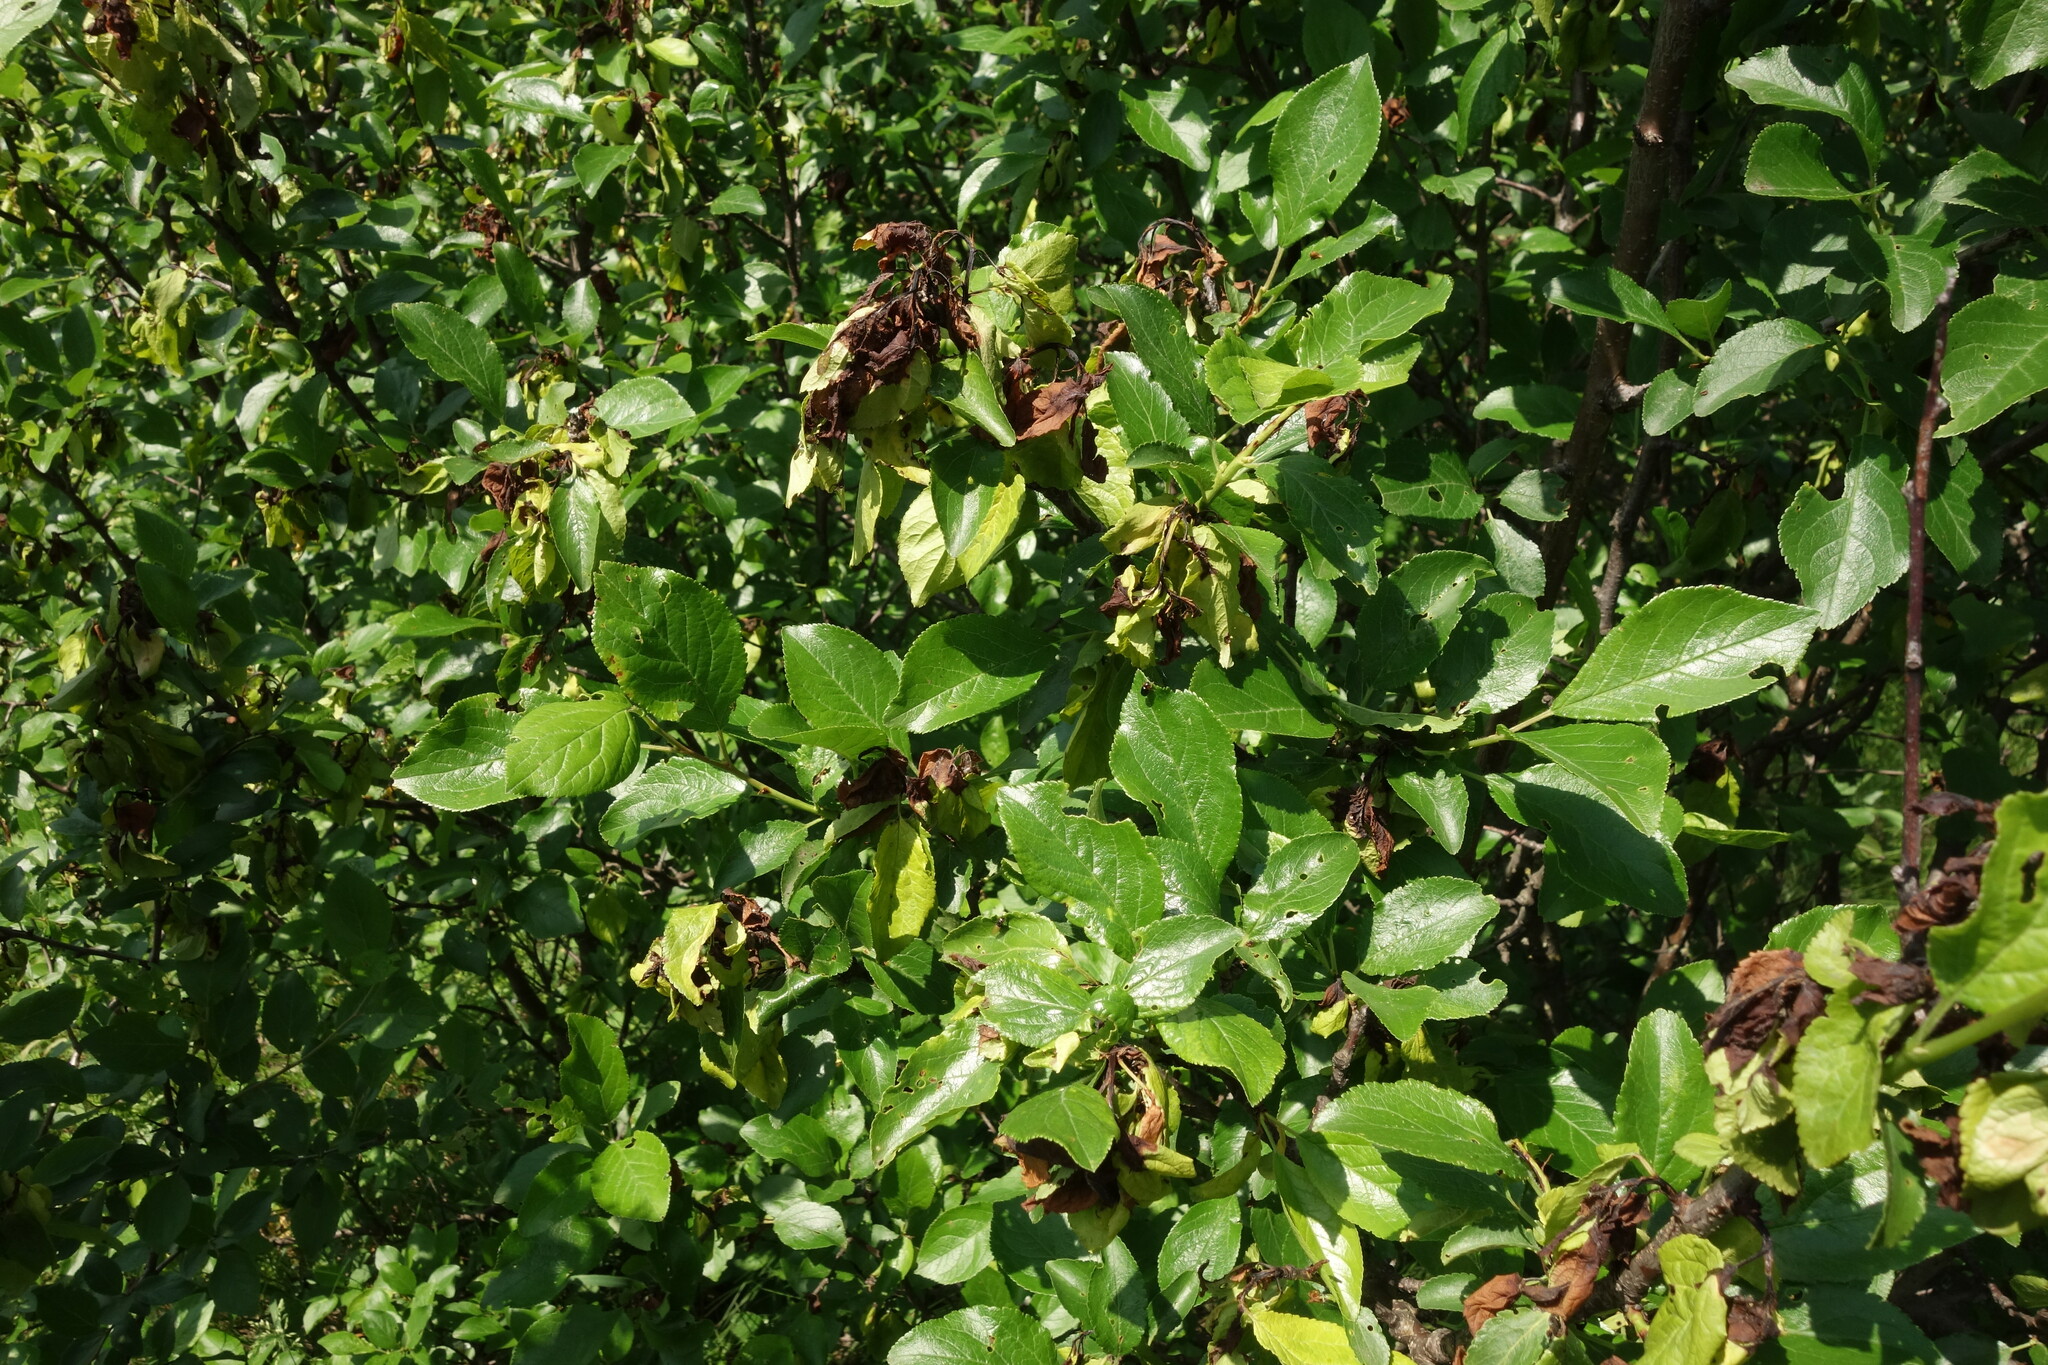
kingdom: Plantae
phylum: Tracheophyta
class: Magnoliopsida
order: Rosales
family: Rosaceae
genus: Prunus
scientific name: Prunus spinosa
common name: Blackthorn
